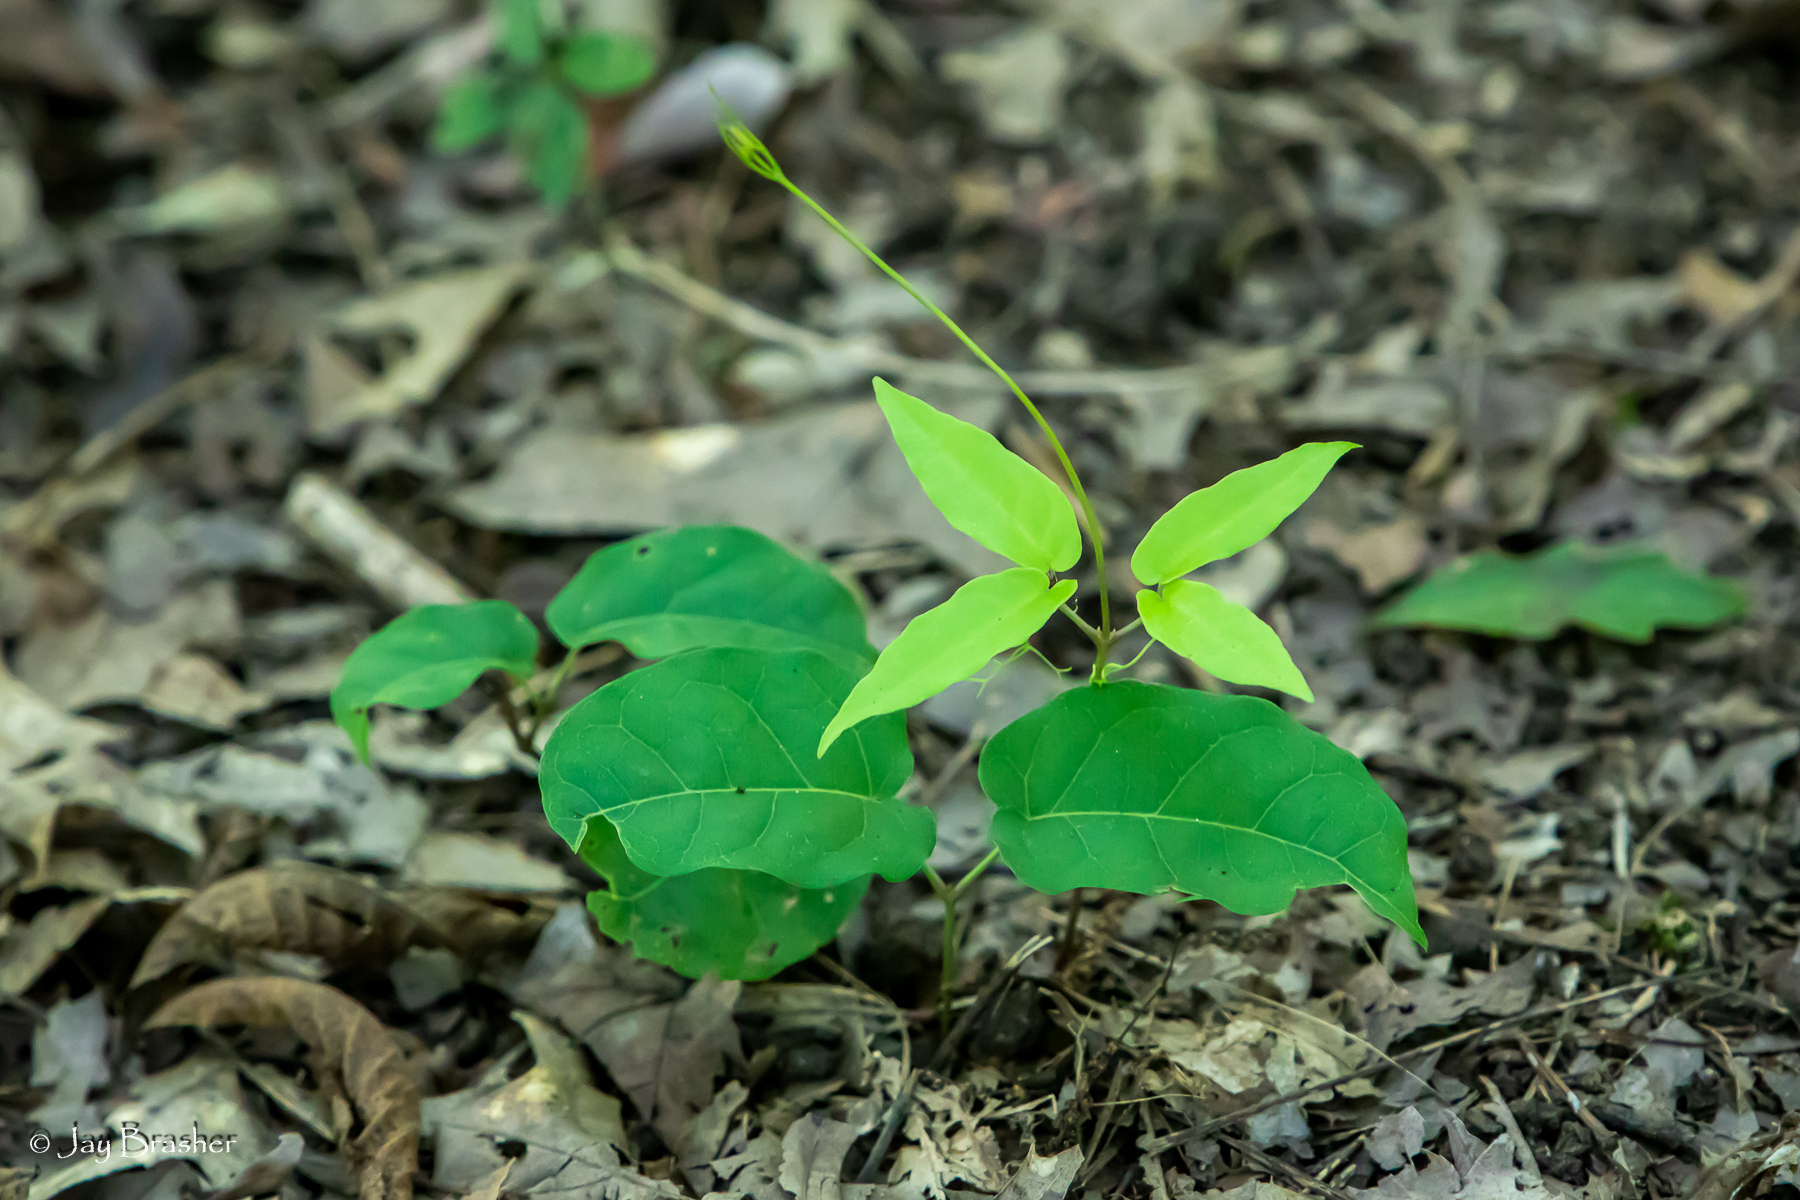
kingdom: Plantae
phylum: Tracheophyta
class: Magnoliopsida
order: Lamiales
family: Bignoniaceae
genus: Bignonia
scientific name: Bignonia capreolata
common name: Crossvine
